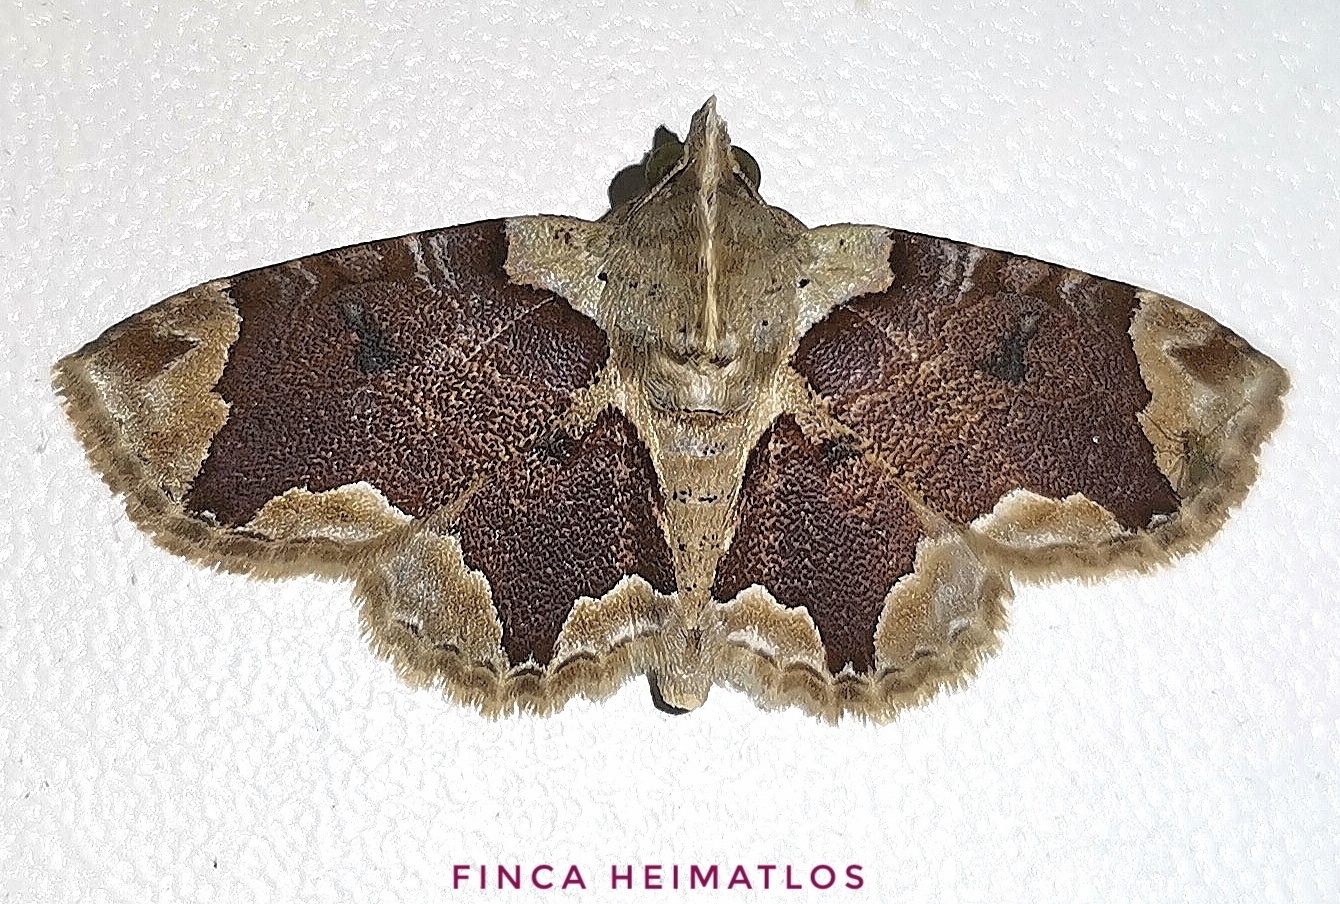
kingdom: Animalia
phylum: Arthropoda
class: Insecta
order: Lepidoptera
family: Erebidae
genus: Dolichosomastis
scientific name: Dolichosomastis bicolorata
